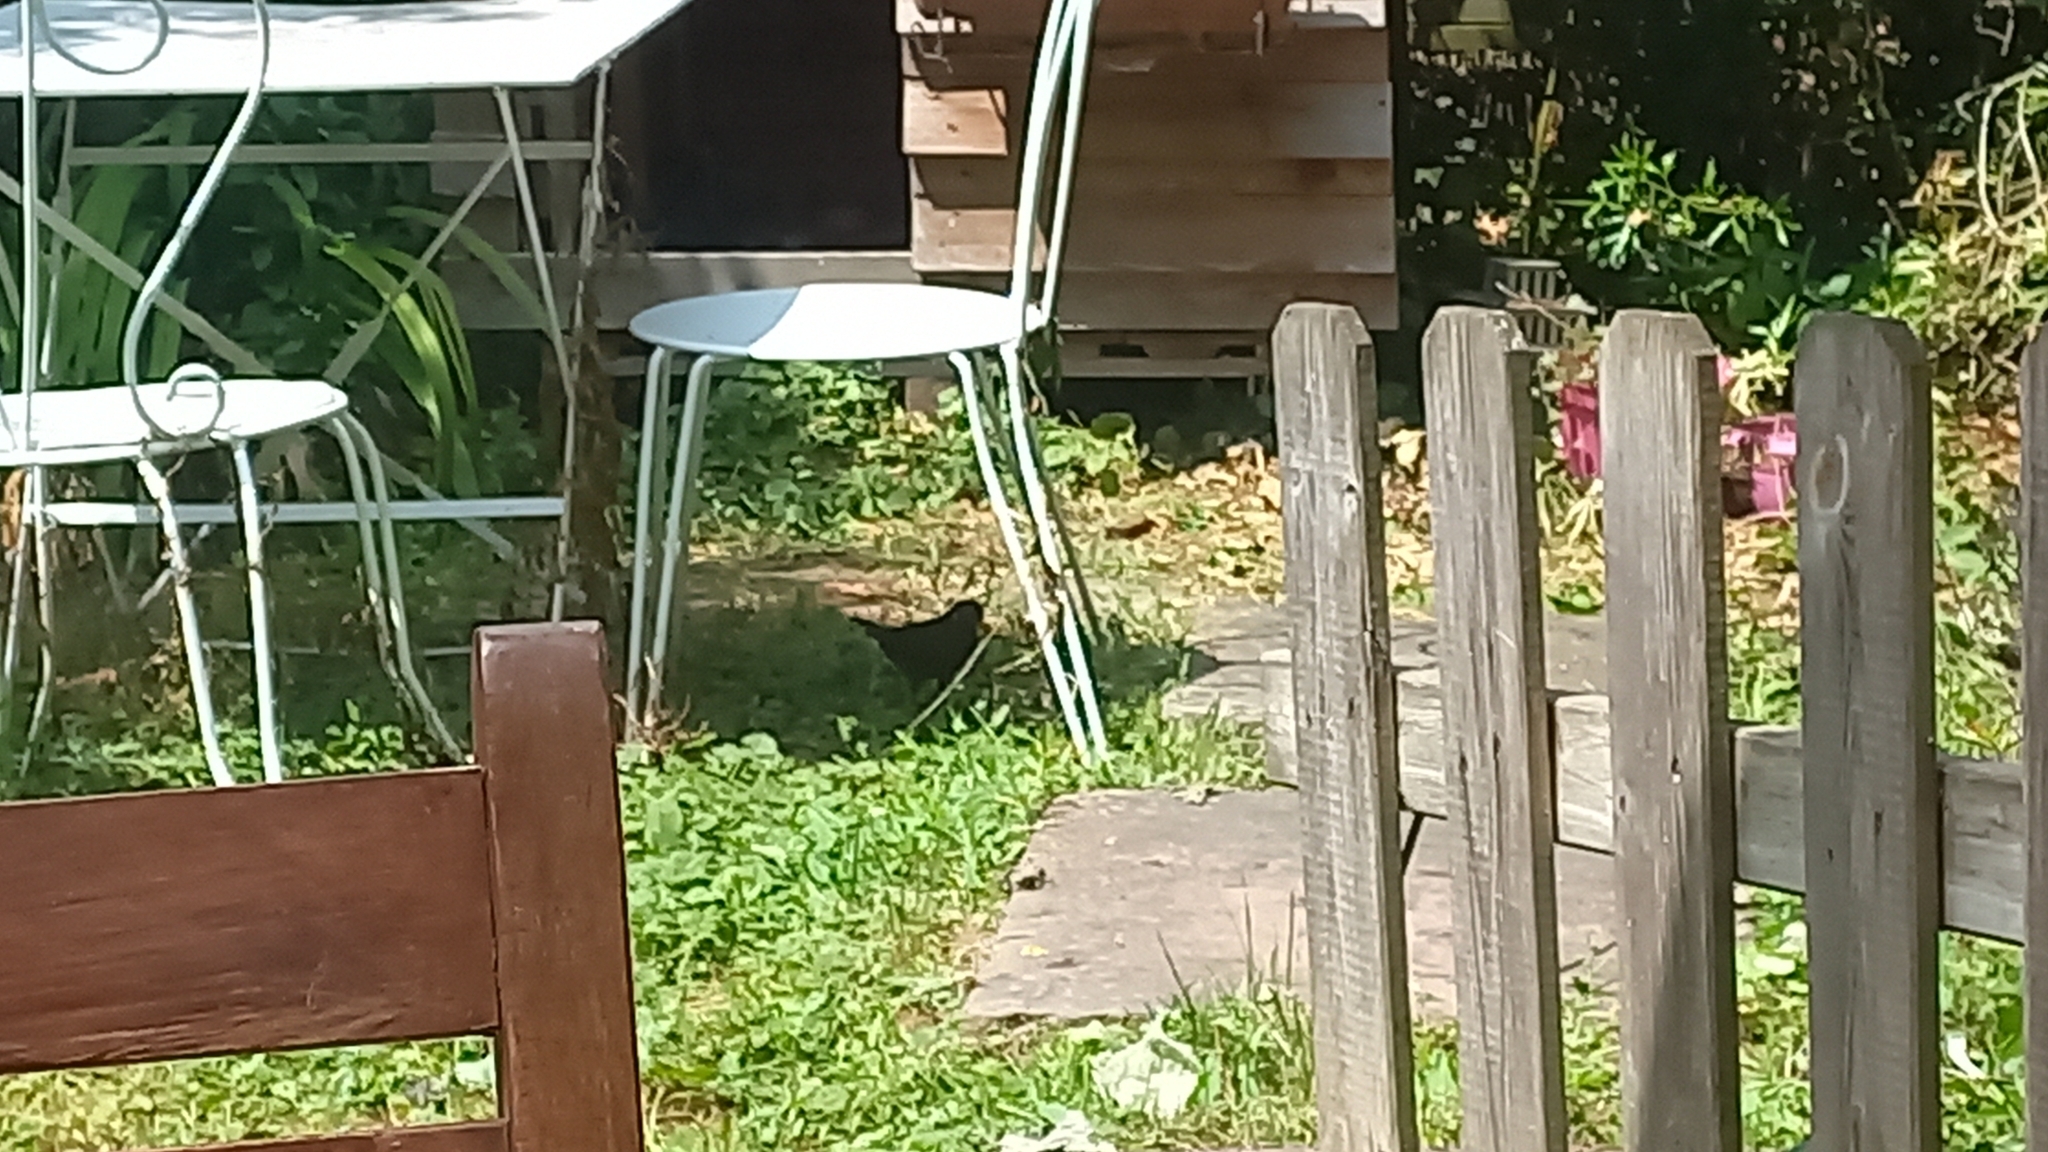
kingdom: Animalia
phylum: Chordata
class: Aves
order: Passeriformes
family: Turdidae
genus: Turdus
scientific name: Turdus merula
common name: Common blackbird
